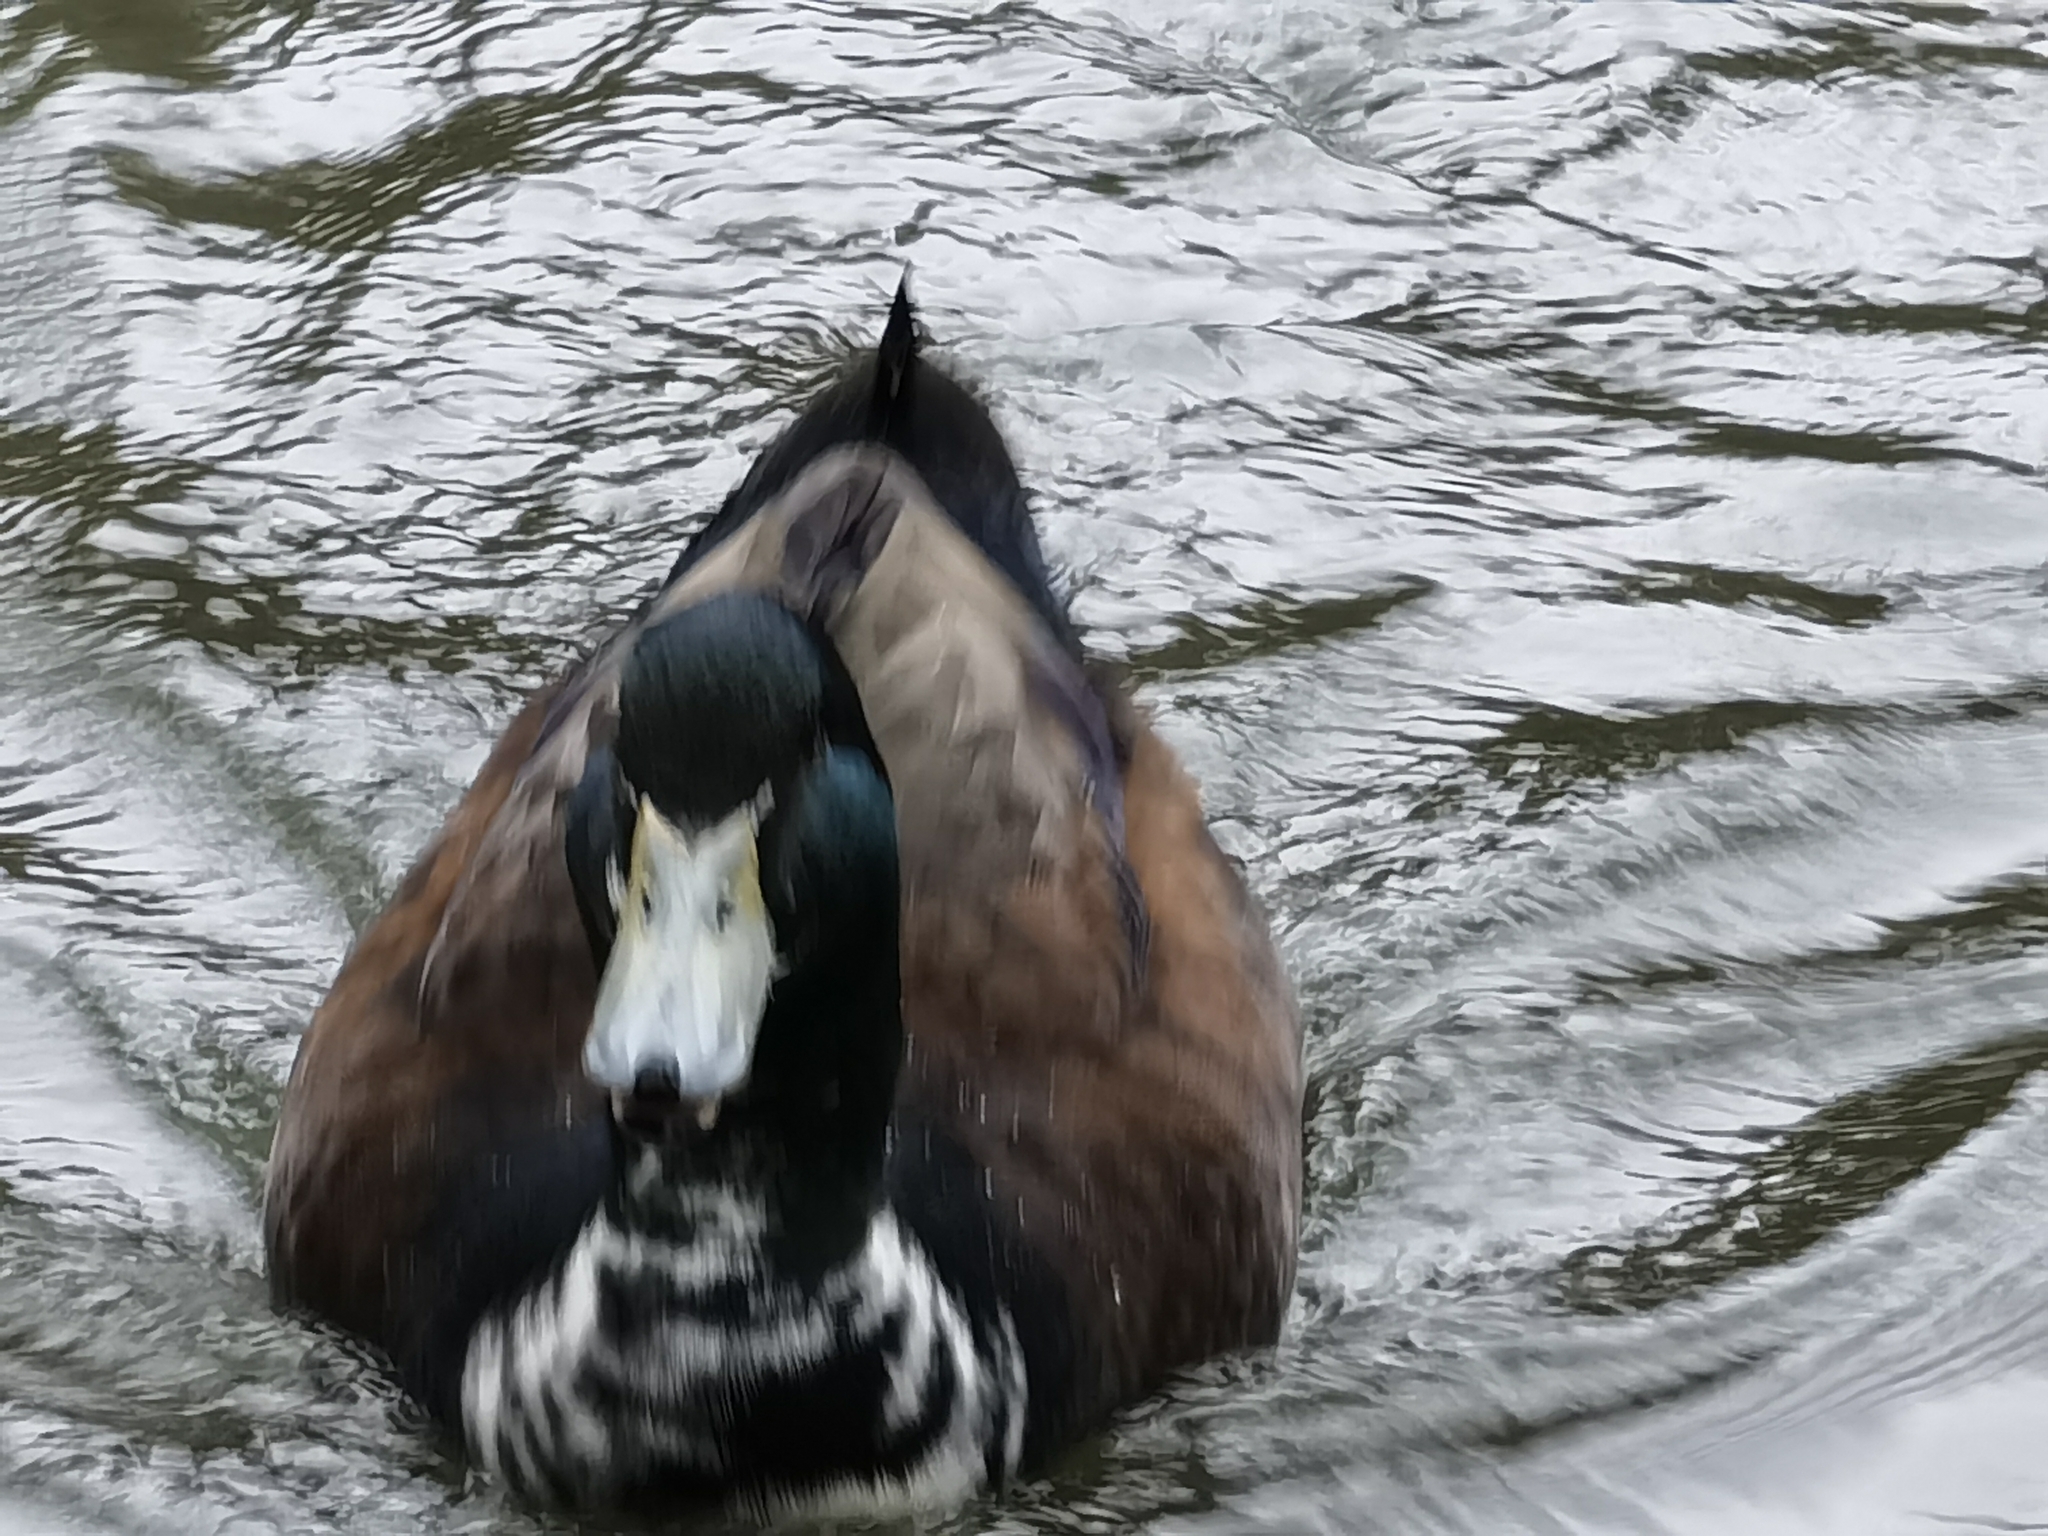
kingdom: Animalia
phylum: Chordata
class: Aves
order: Anseriformes
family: Anatidae
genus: Anas
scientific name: Anas platyrhynchos
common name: Mallard
